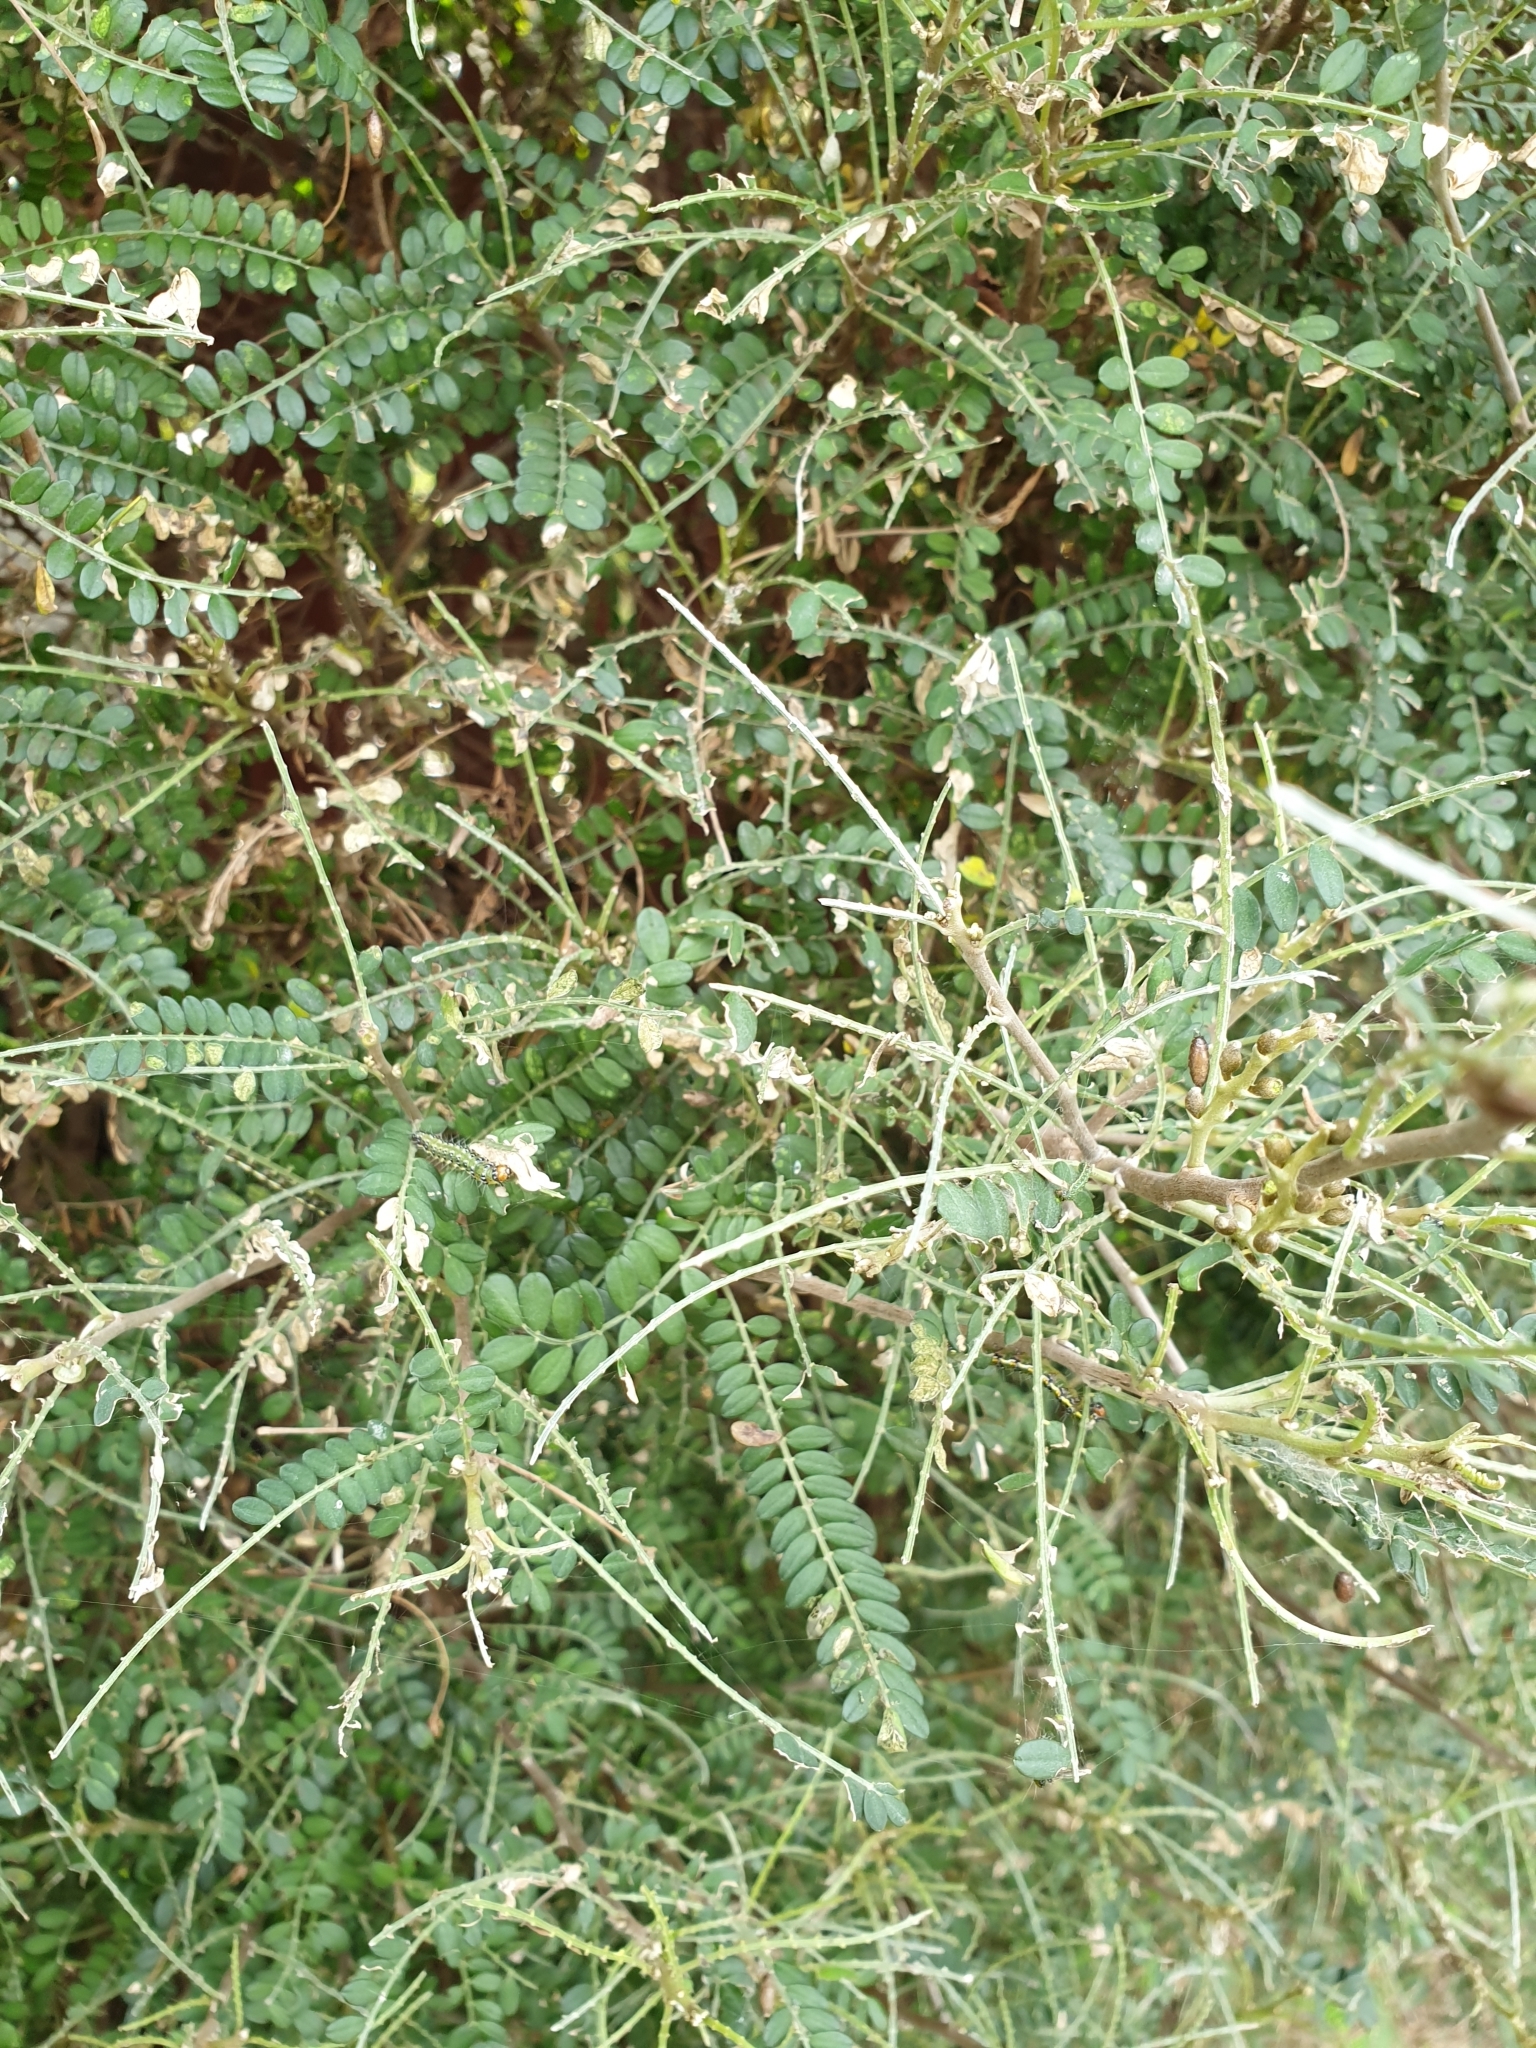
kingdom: Plantae
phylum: Tracheophyta
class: Magnoliopsida
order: Fabales
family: Fabaceae
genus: Sophora
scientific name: Sophora microphylla
